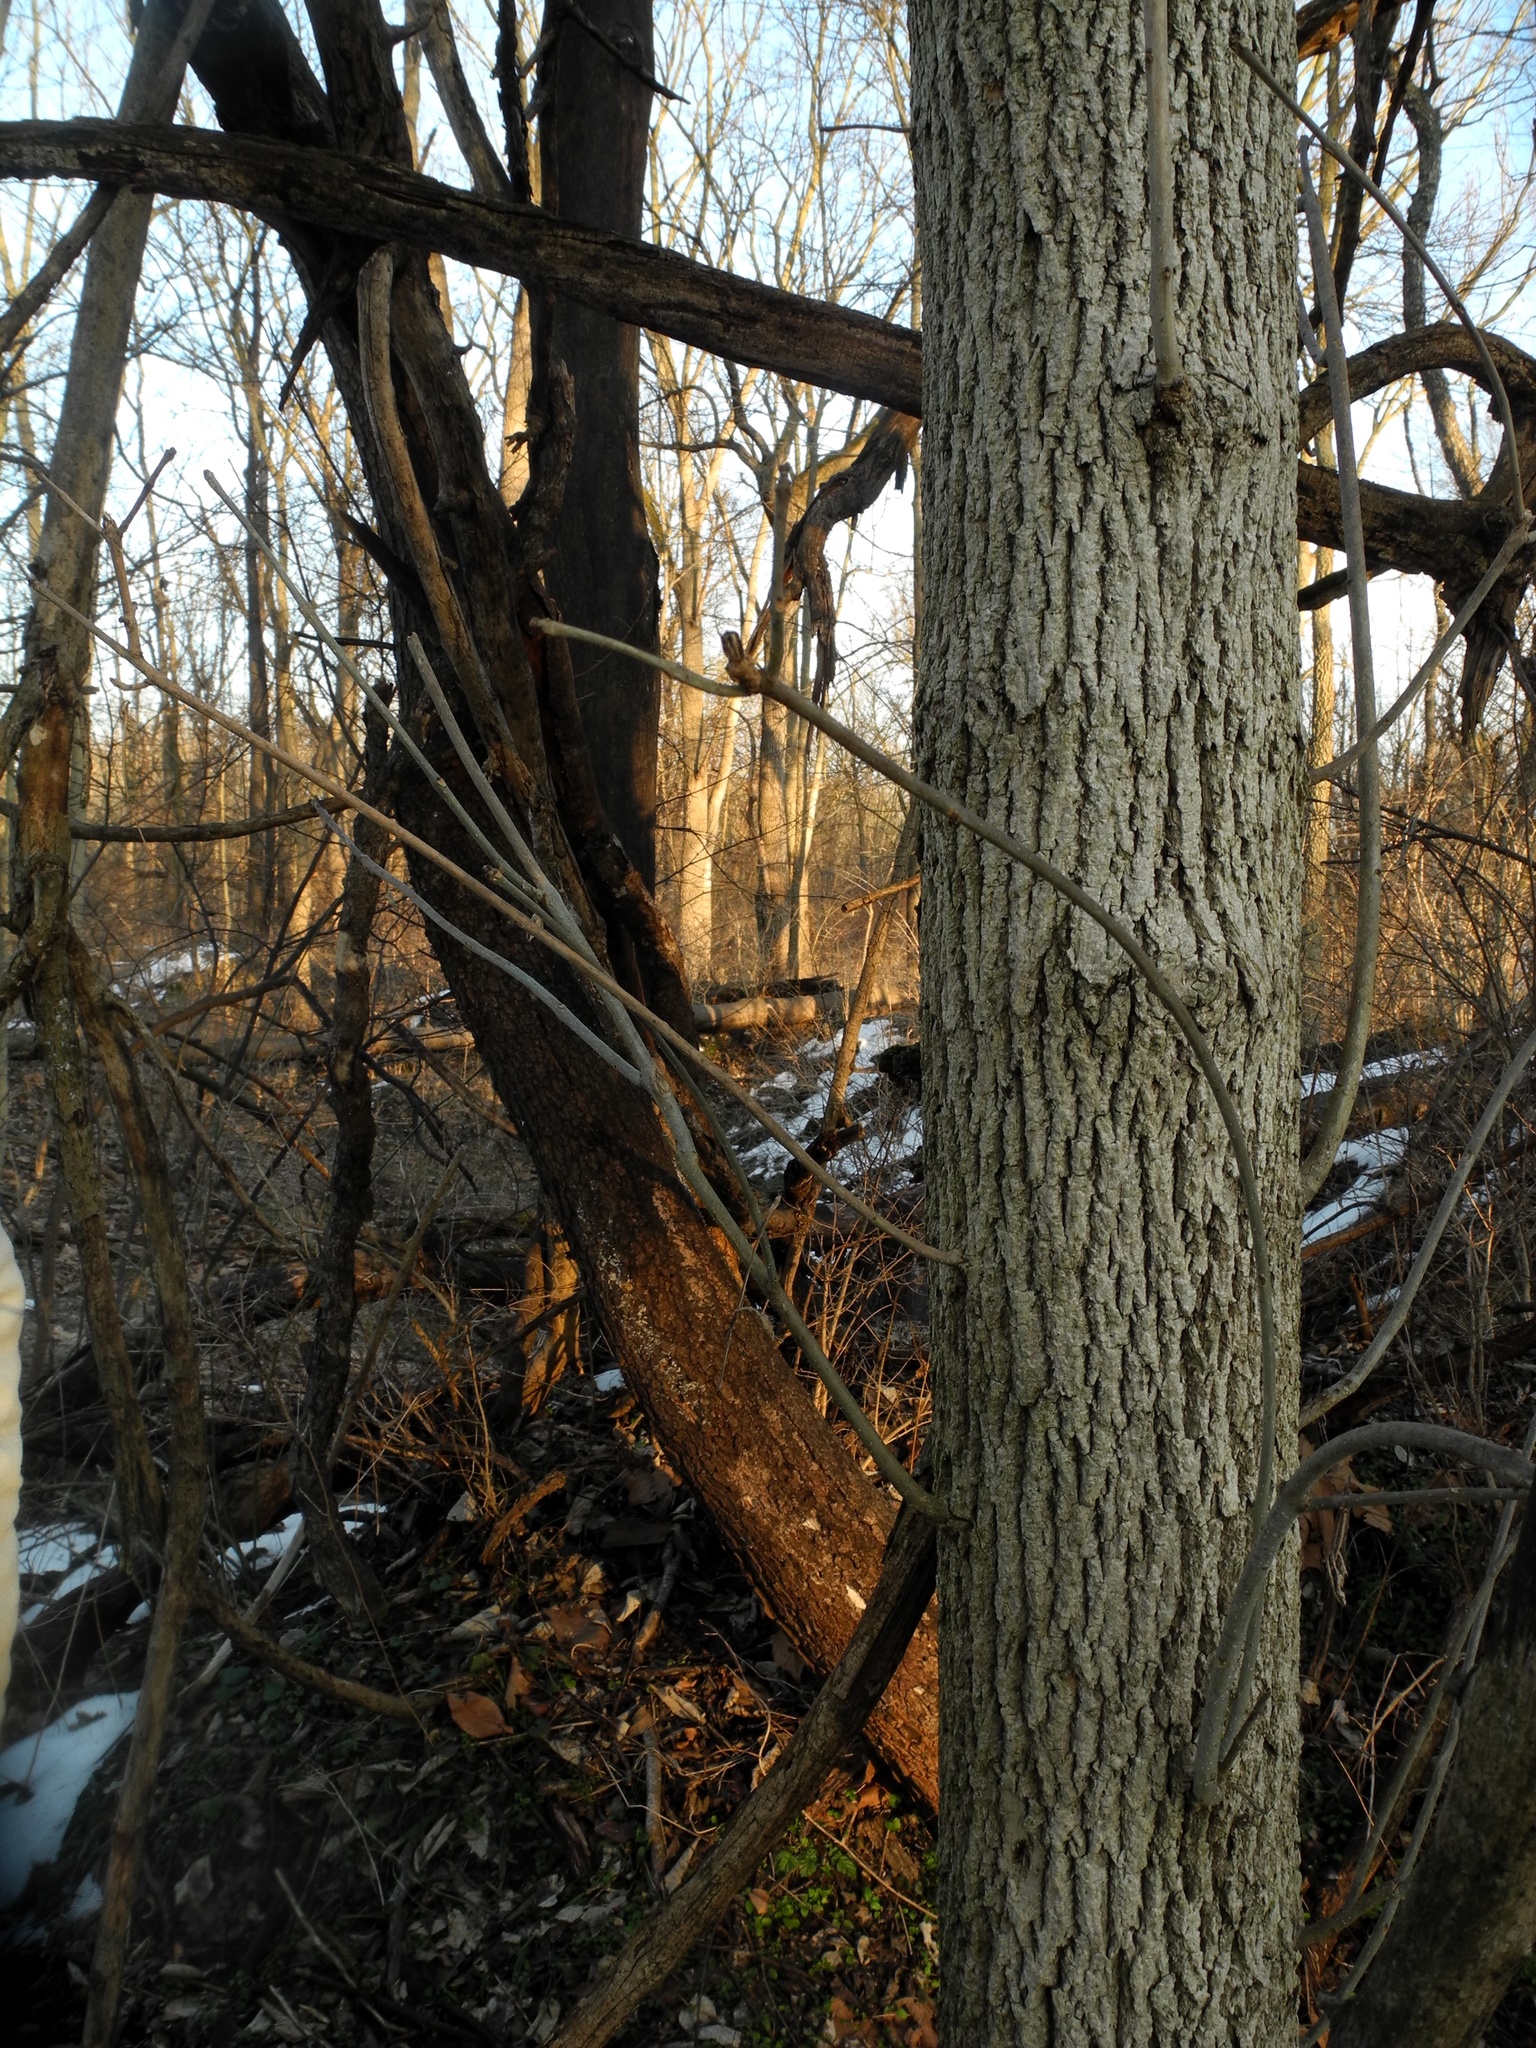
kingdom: Plantae
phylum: Tracheophyta
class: Magnoliopsida
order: Lamiales
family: Oleaceae
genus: Fraxinus
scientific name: Fraxinus pennsylvanica
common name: Green ash
